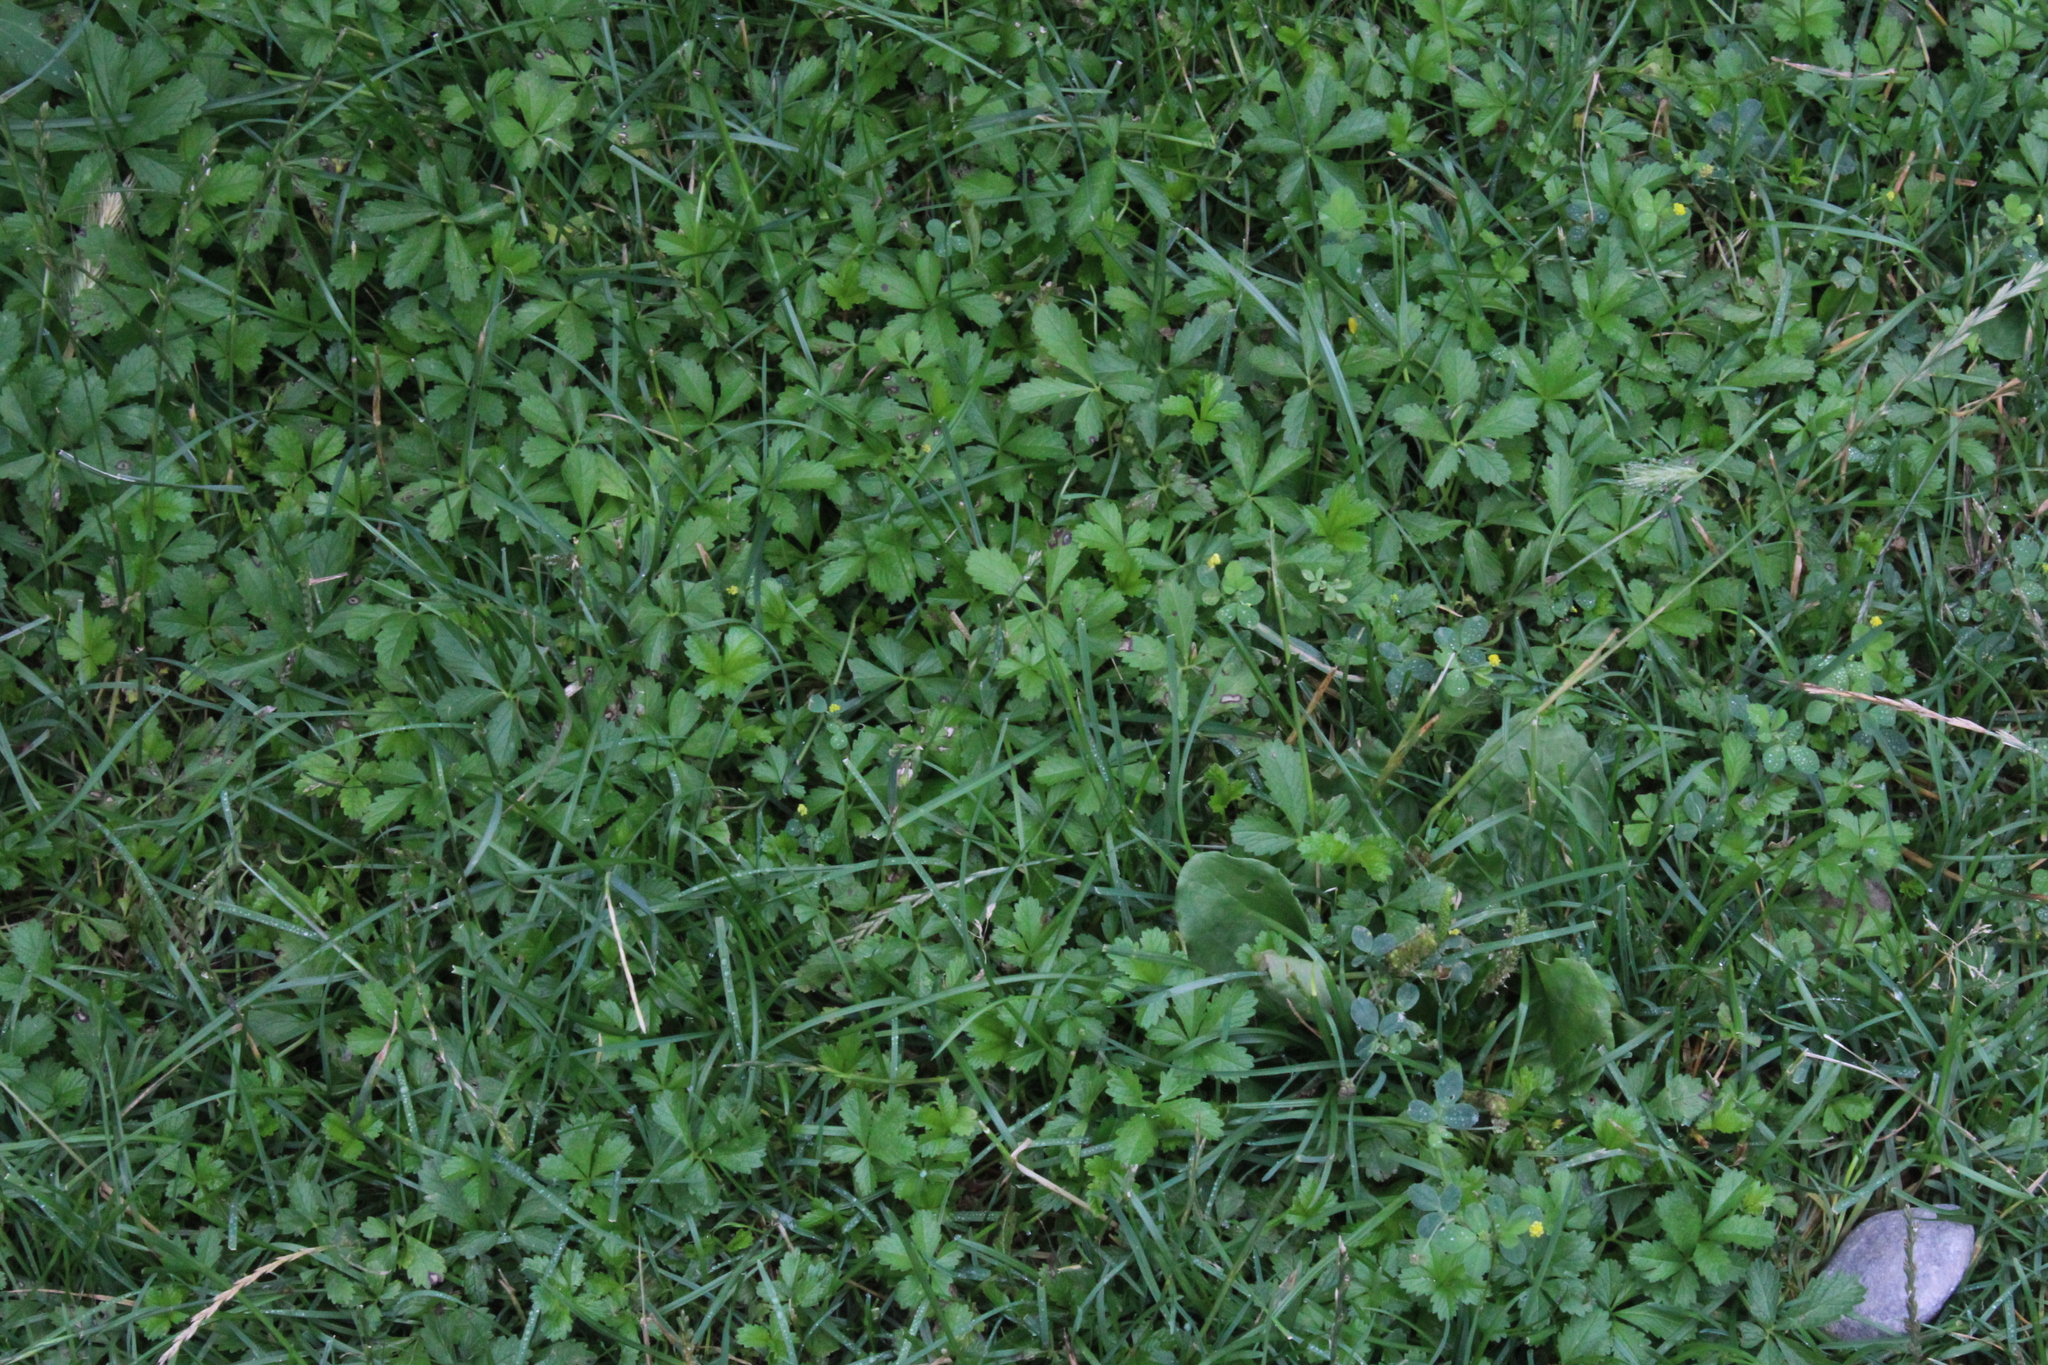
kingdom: Plantae
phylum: Tracheophyta
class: Magnoliopsida
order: Rosales
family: Rosaceae
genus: Potentilla
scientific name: Potentilla reptans
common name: Creeping cinquefoil
